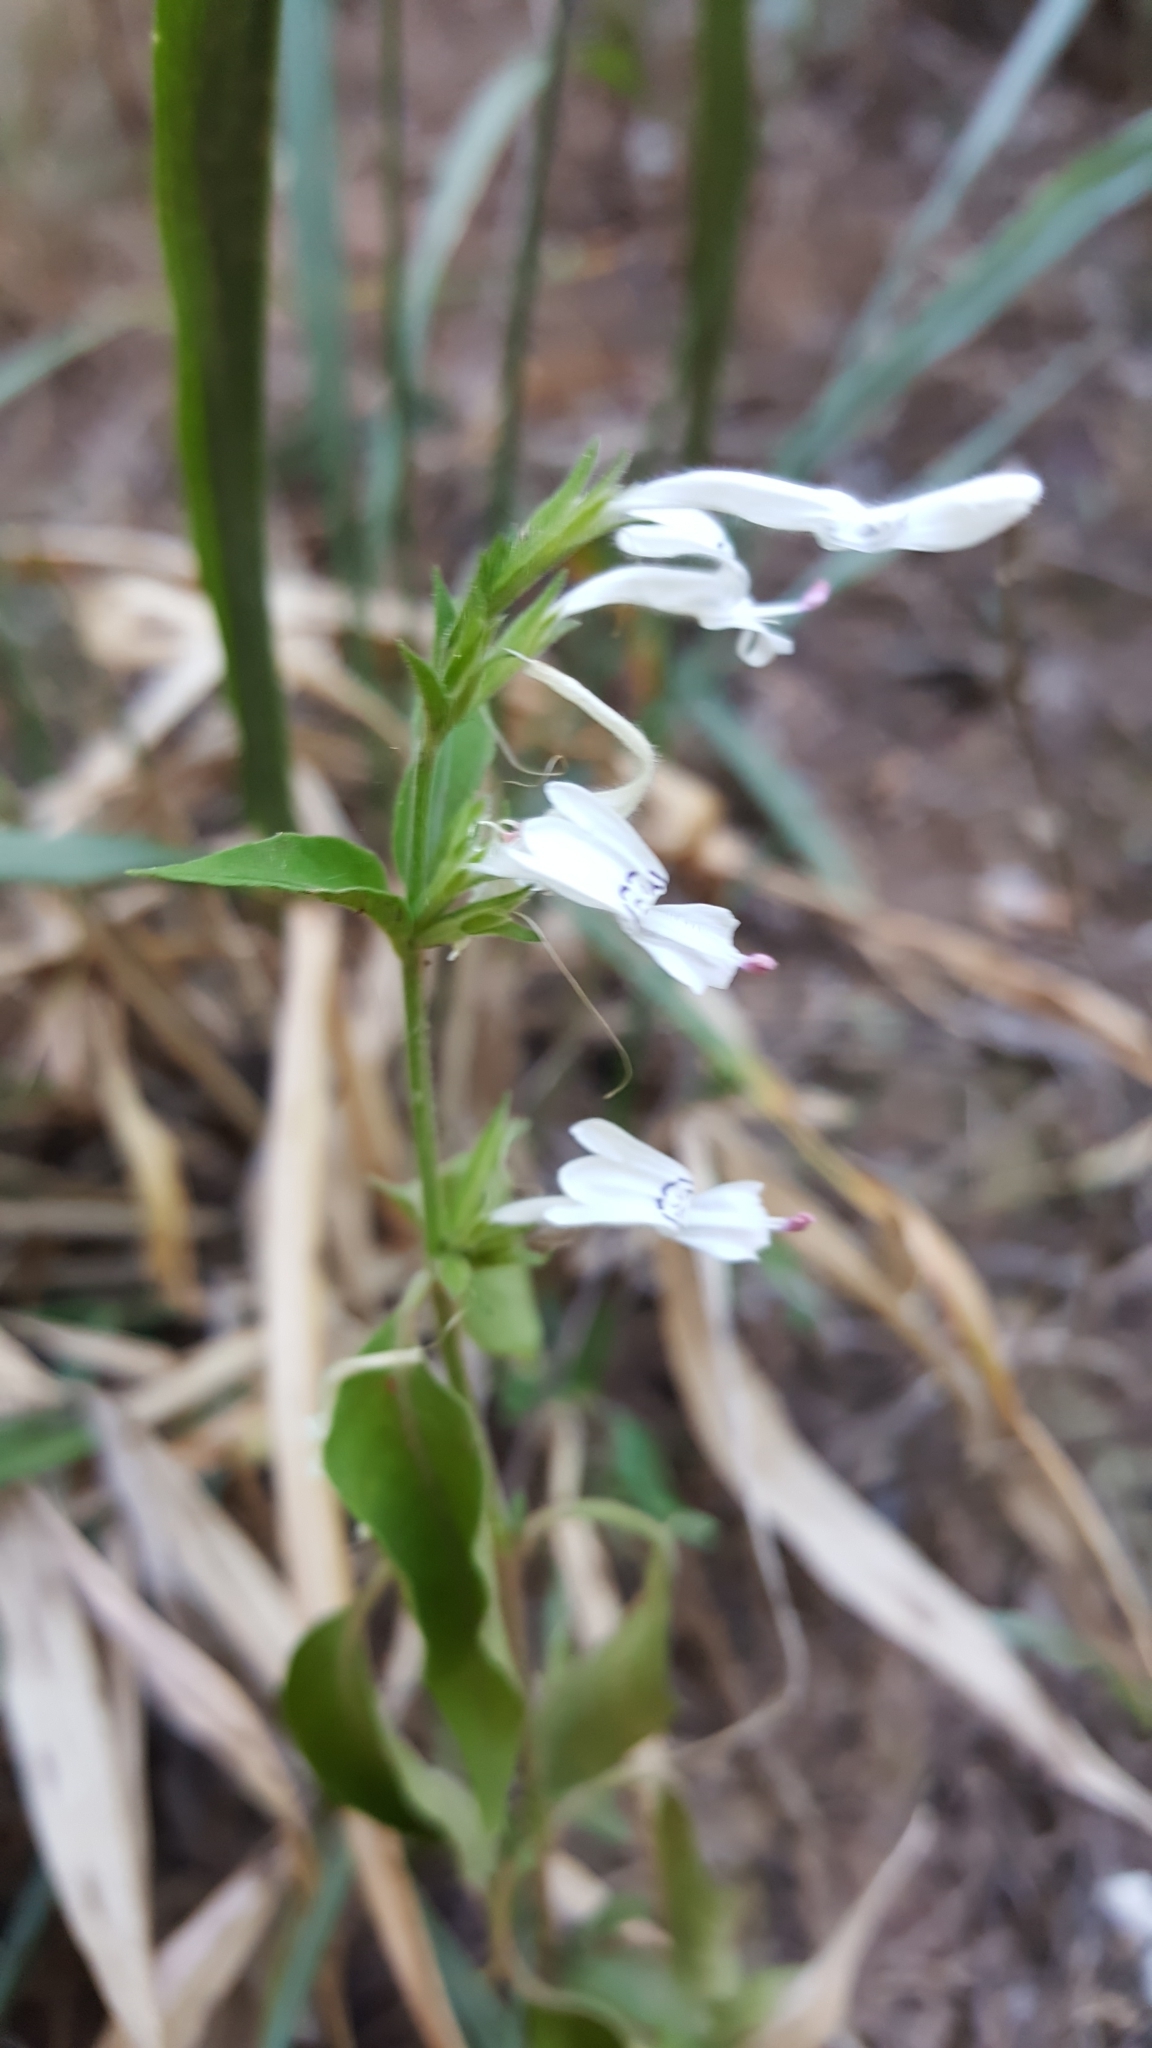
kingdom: Plantae
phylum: Tracheophyta
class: Magnoliopsida
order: Lamiales
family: Acanthaceae
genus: Hypoestes
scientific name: Hypoestes forskaolii
